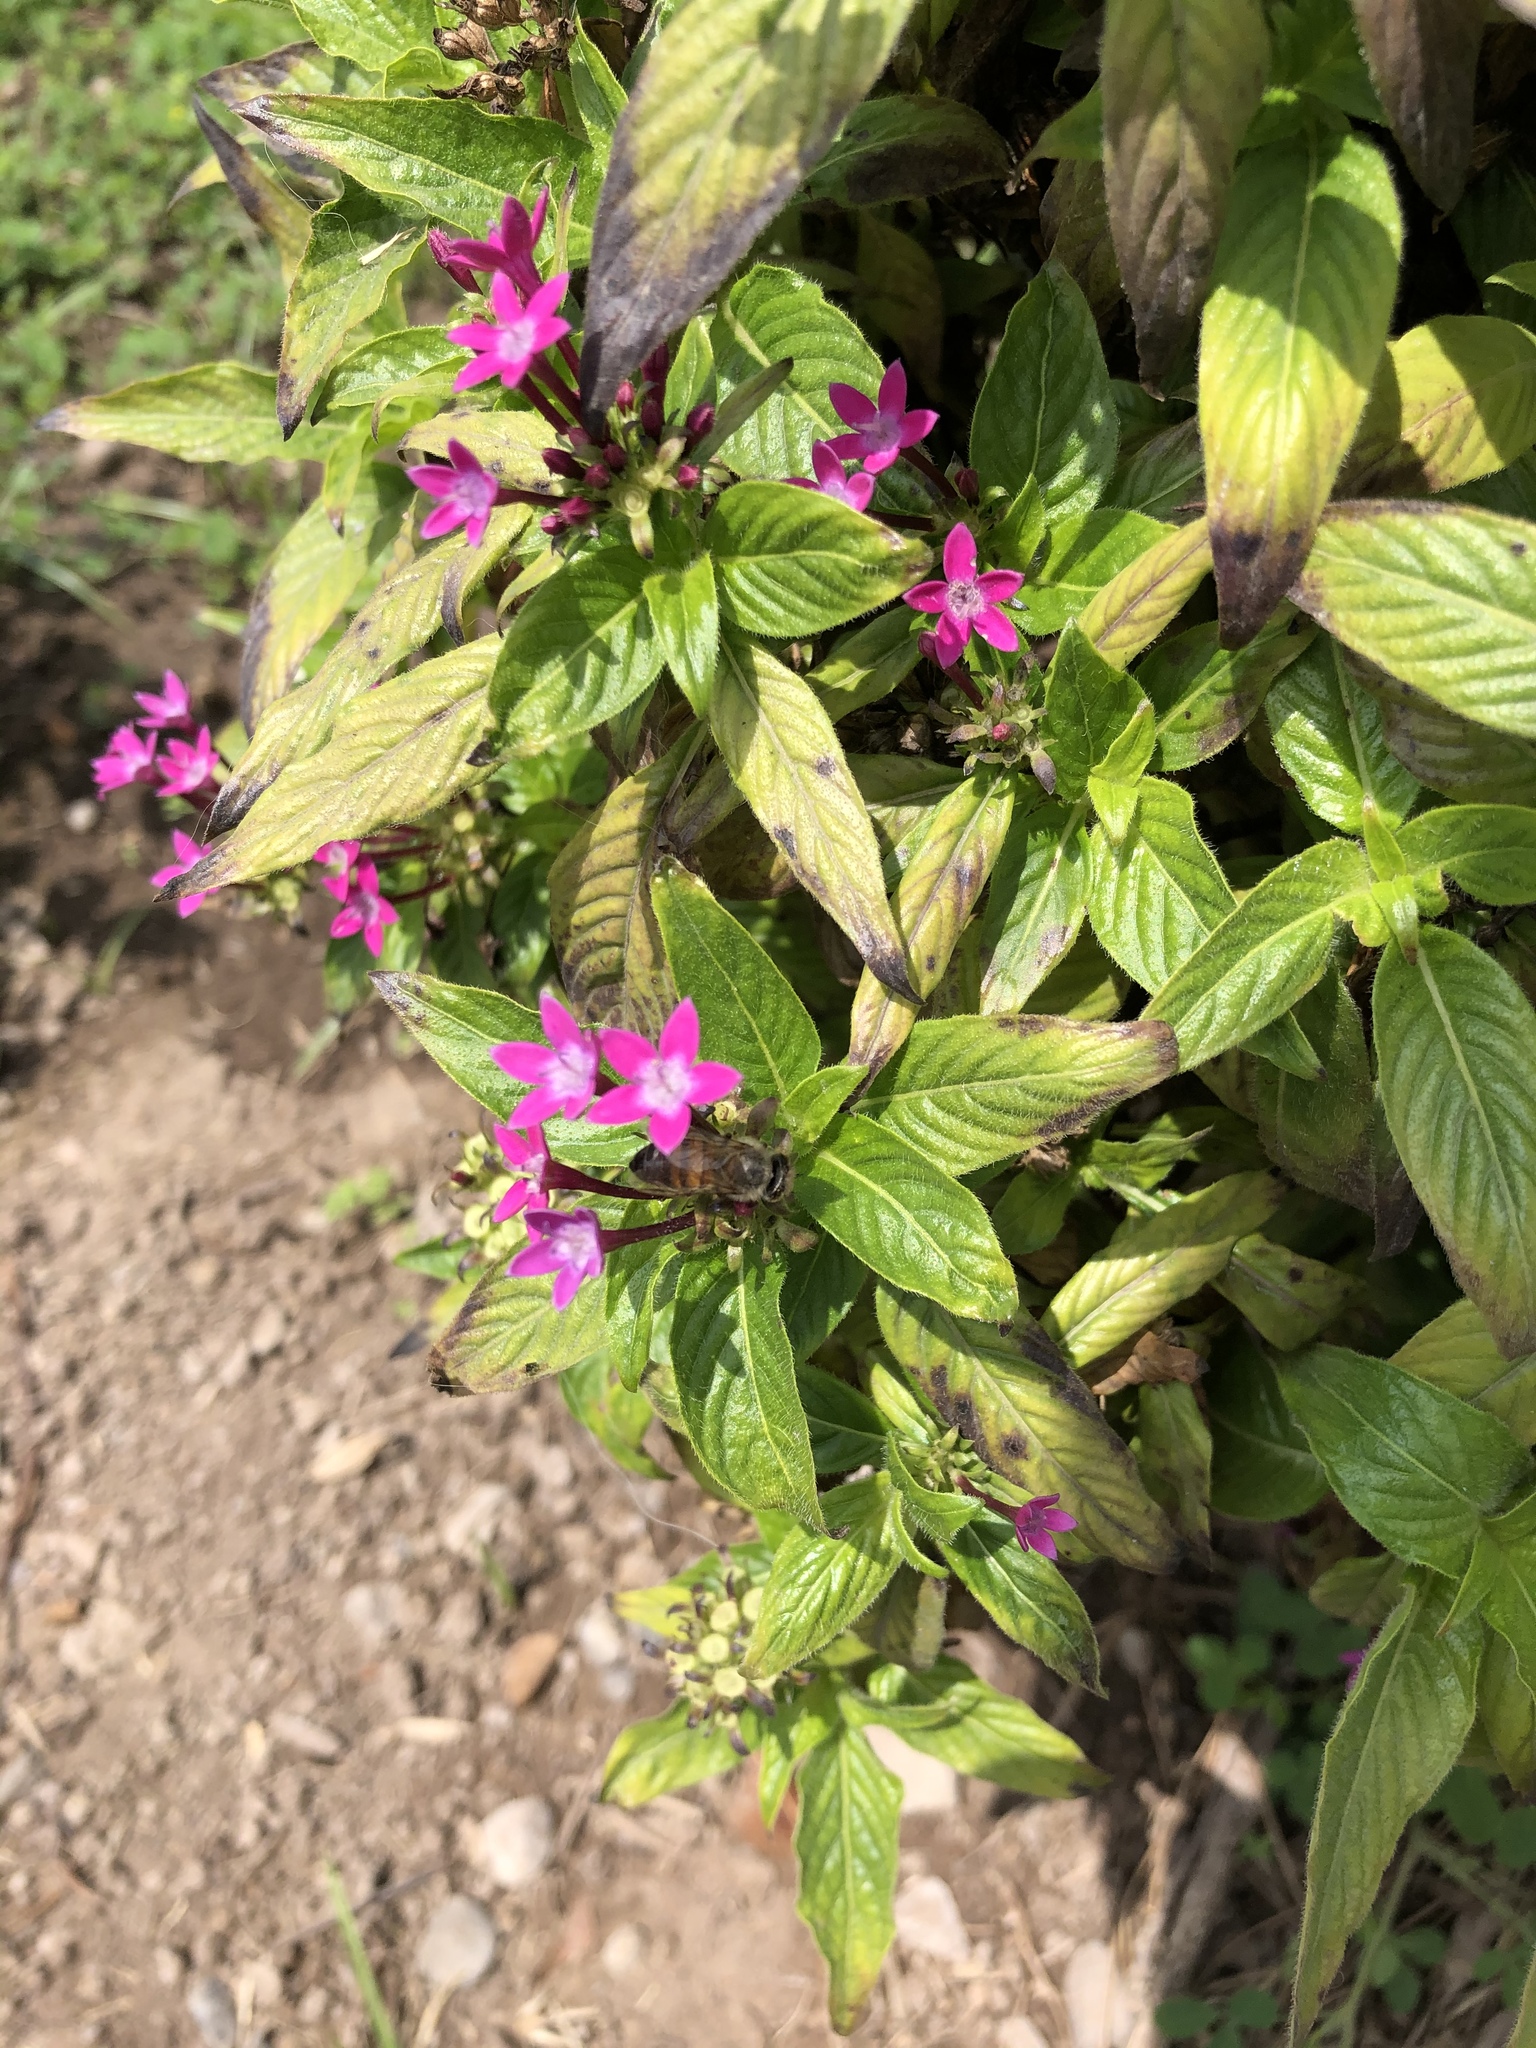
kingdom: Animalia
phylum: Arthropoda
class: Insecta
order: Hymenoptera
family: Apidae
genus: Apis
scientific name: Apis mellifera
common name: Honey bee
